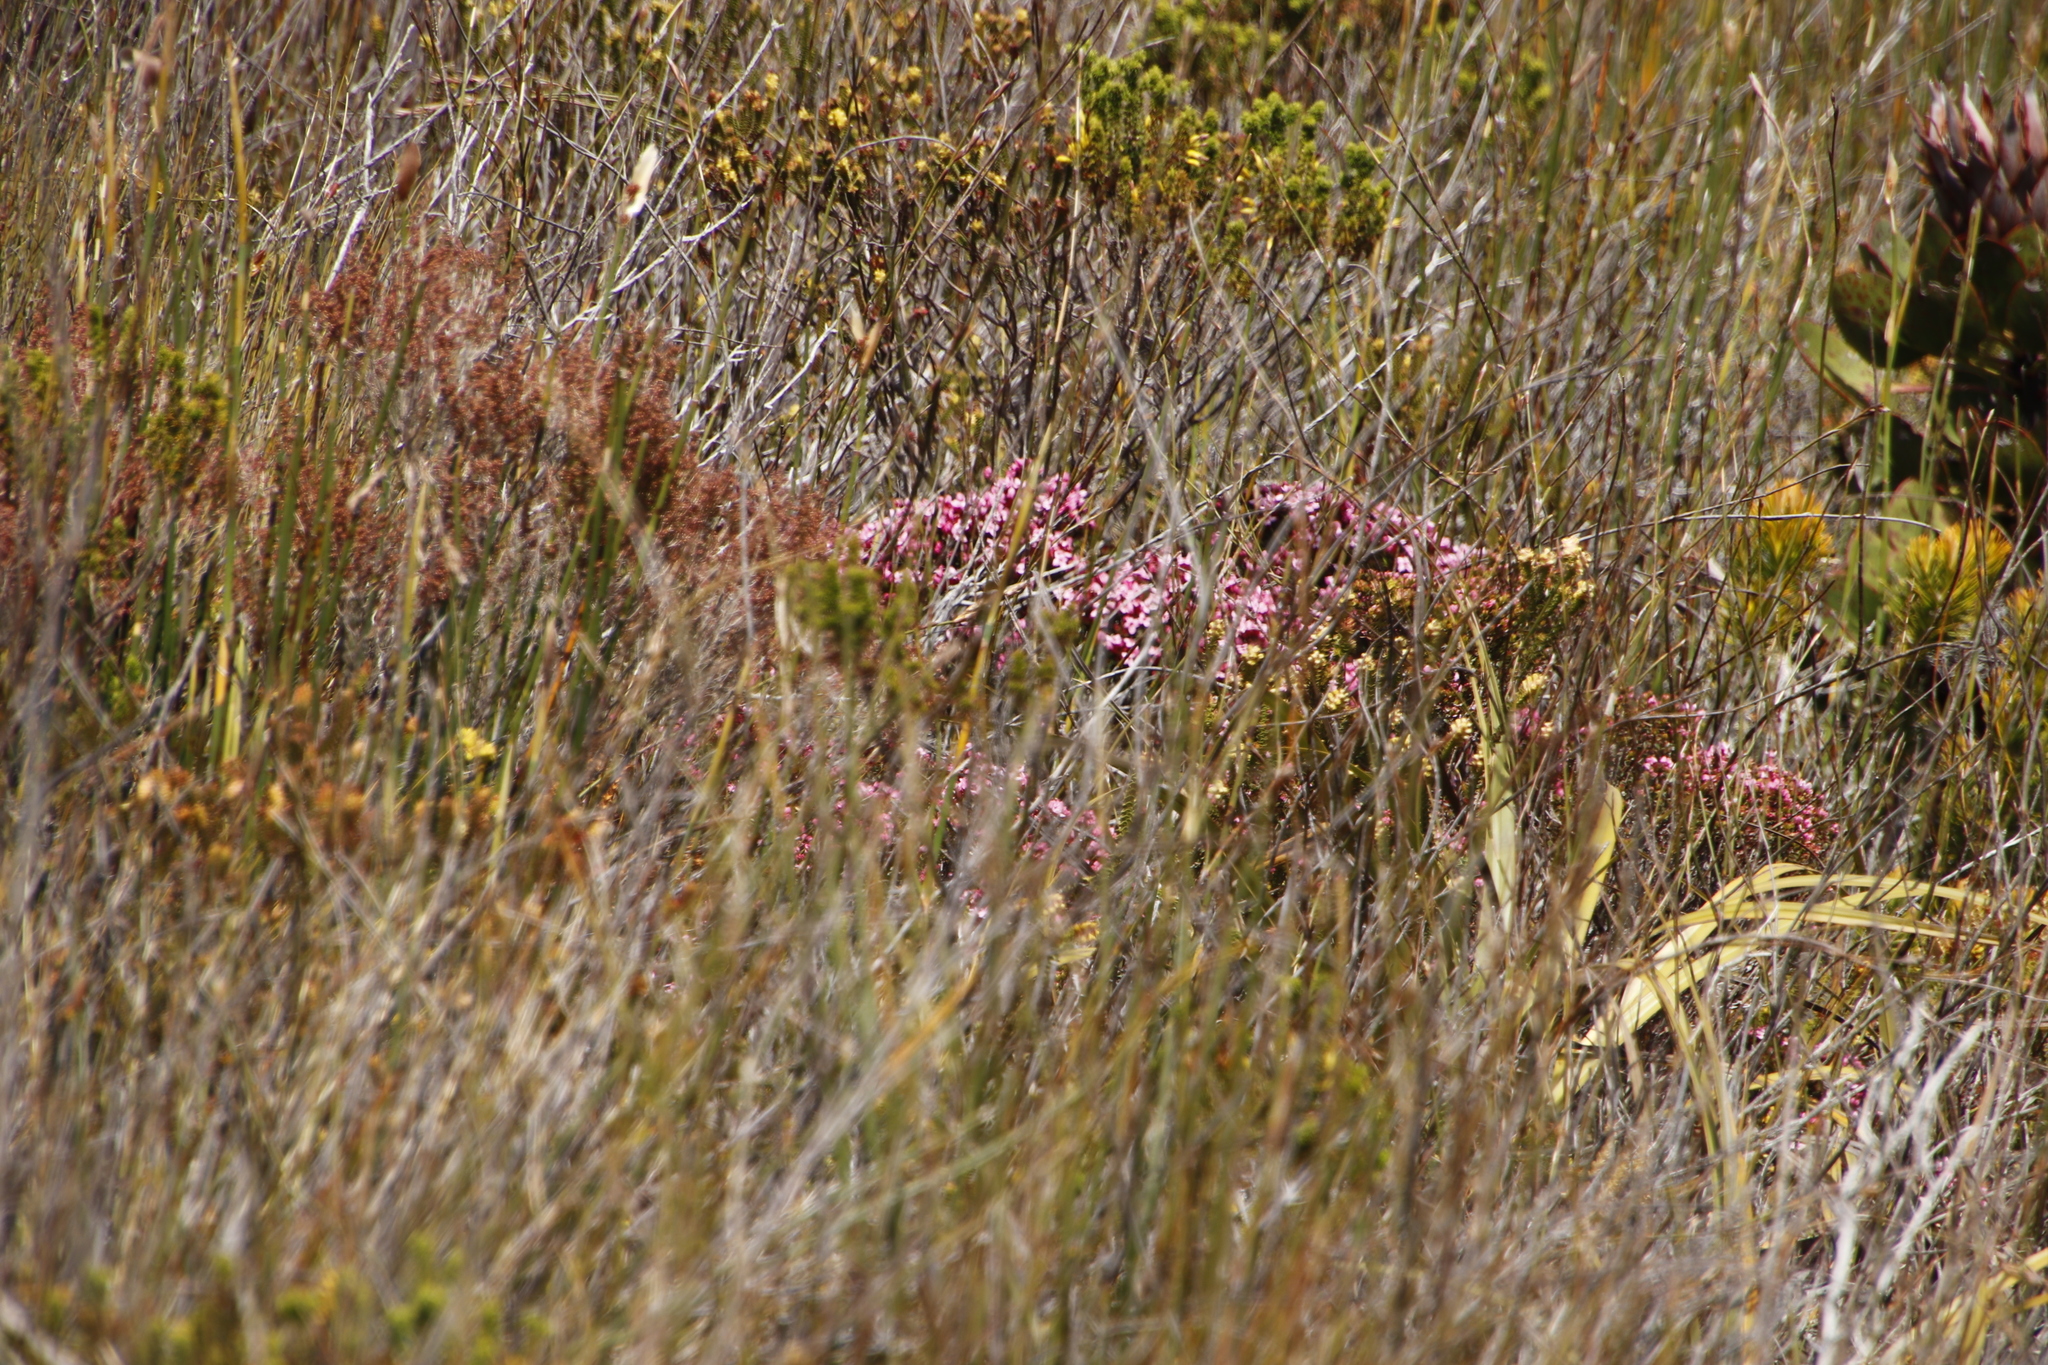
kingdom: Plantae
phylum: Tracheophyta
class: Magnoliopsida
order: Myrtales
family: Penaeaceae
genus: Brachysiphon
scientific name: Brachysiphon acutus
